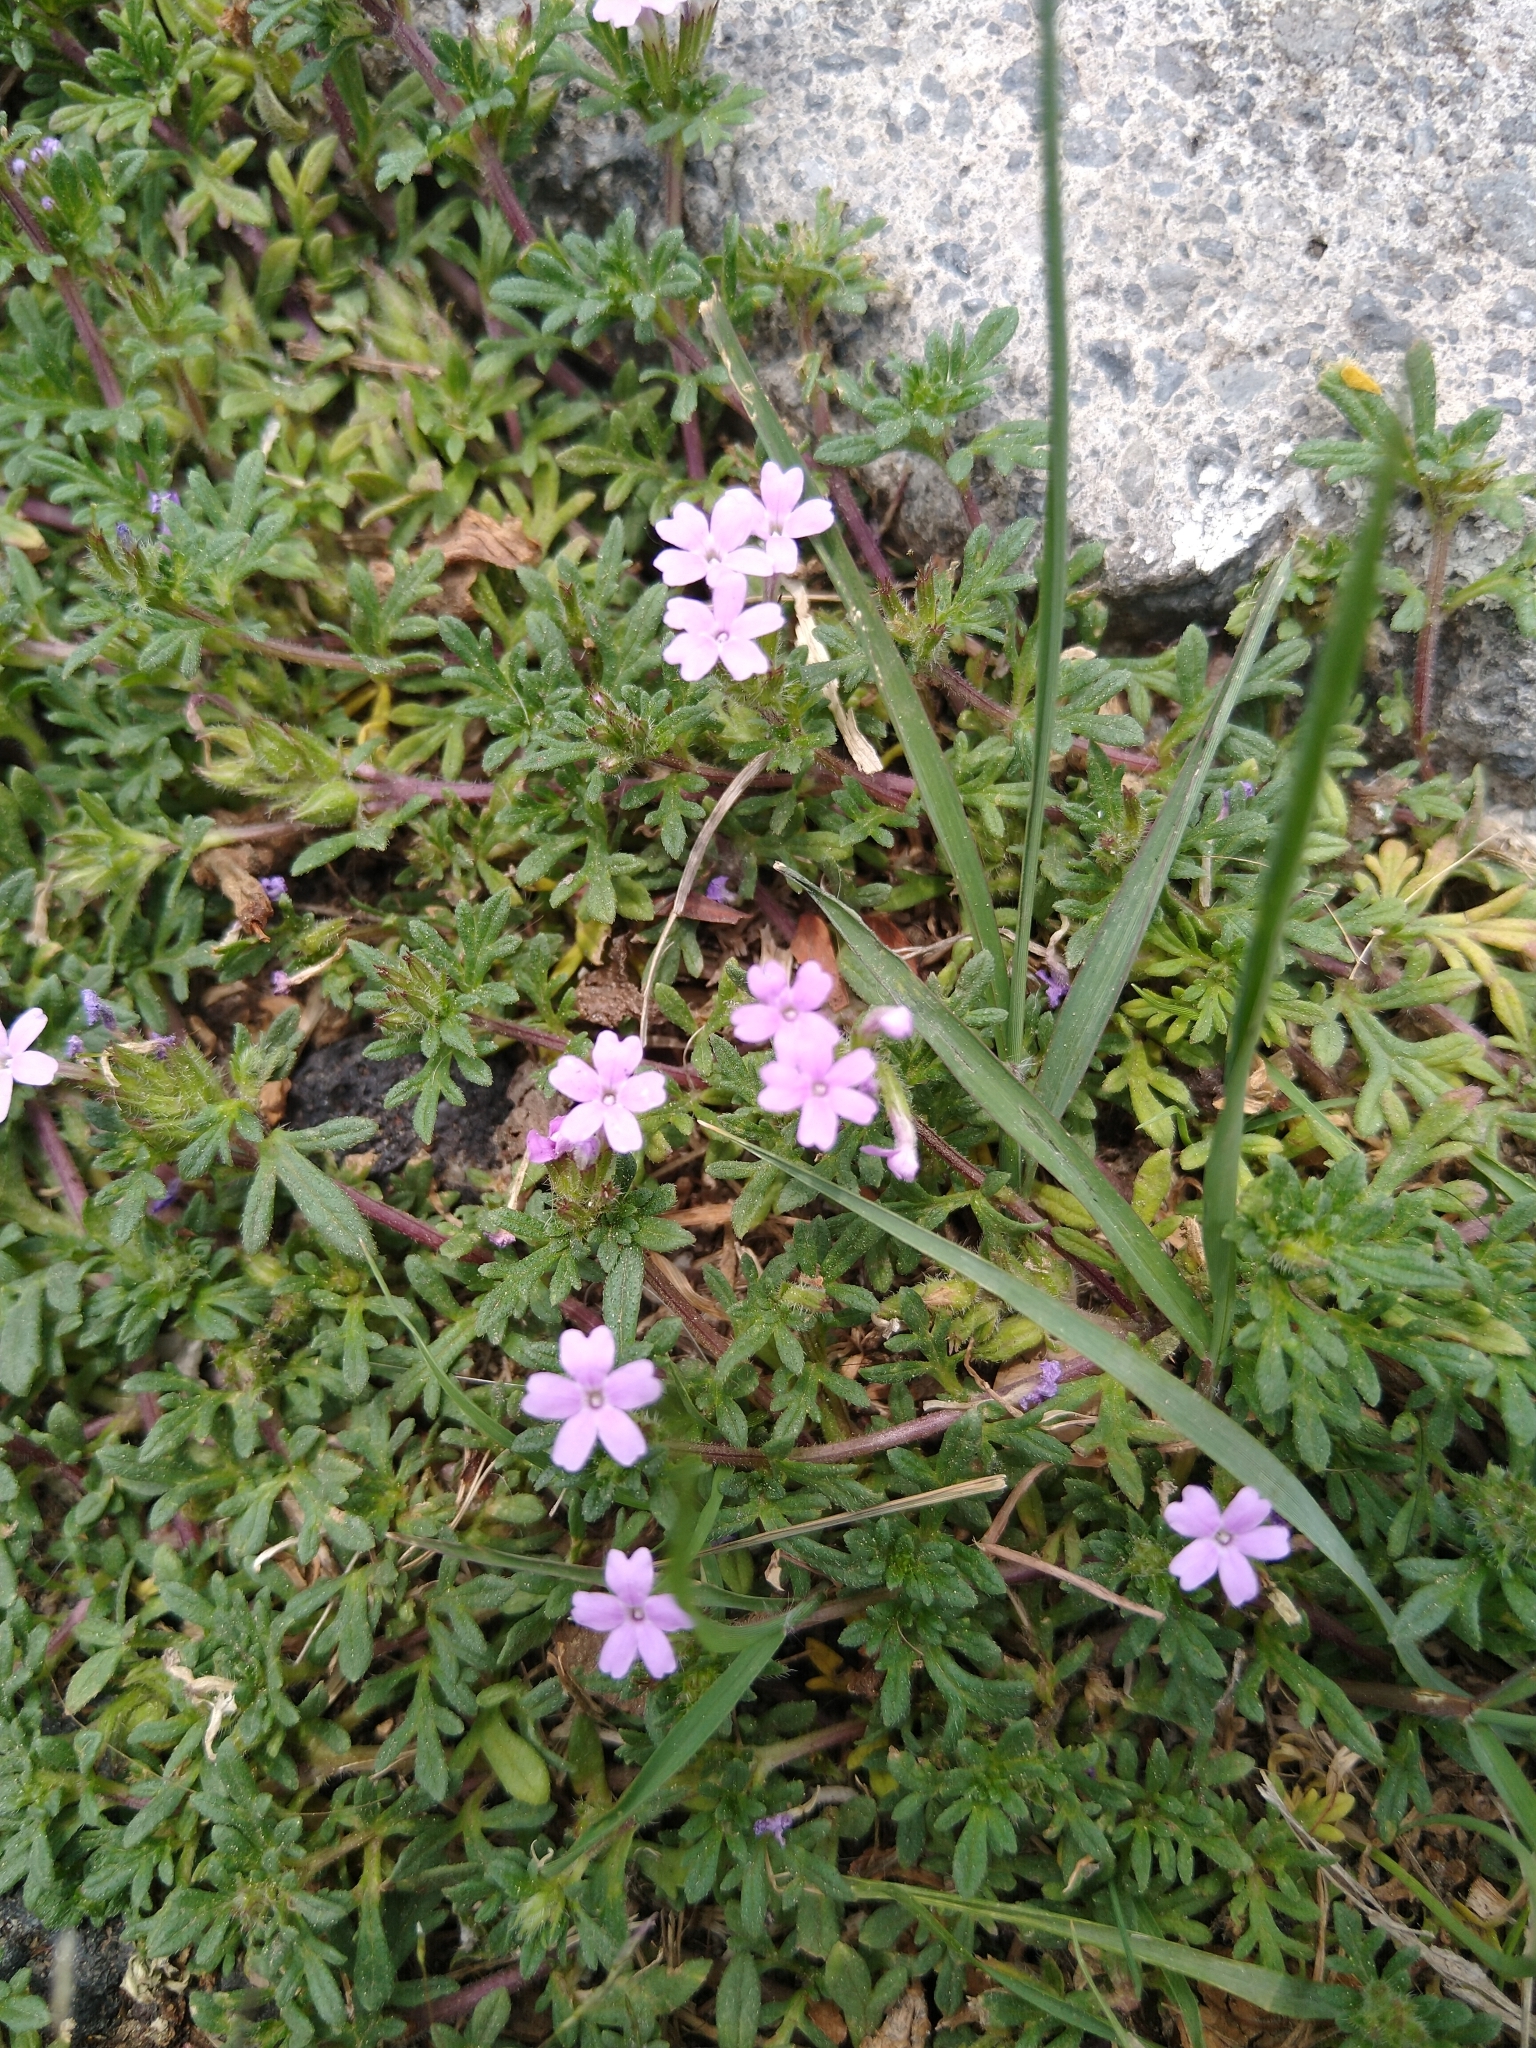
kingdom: Plantae
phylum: Tracheophyta
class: Magnoliopsida
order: Lamiales
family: Verbenaceae
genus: Verbena
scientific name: Verbena bipinnatifida
